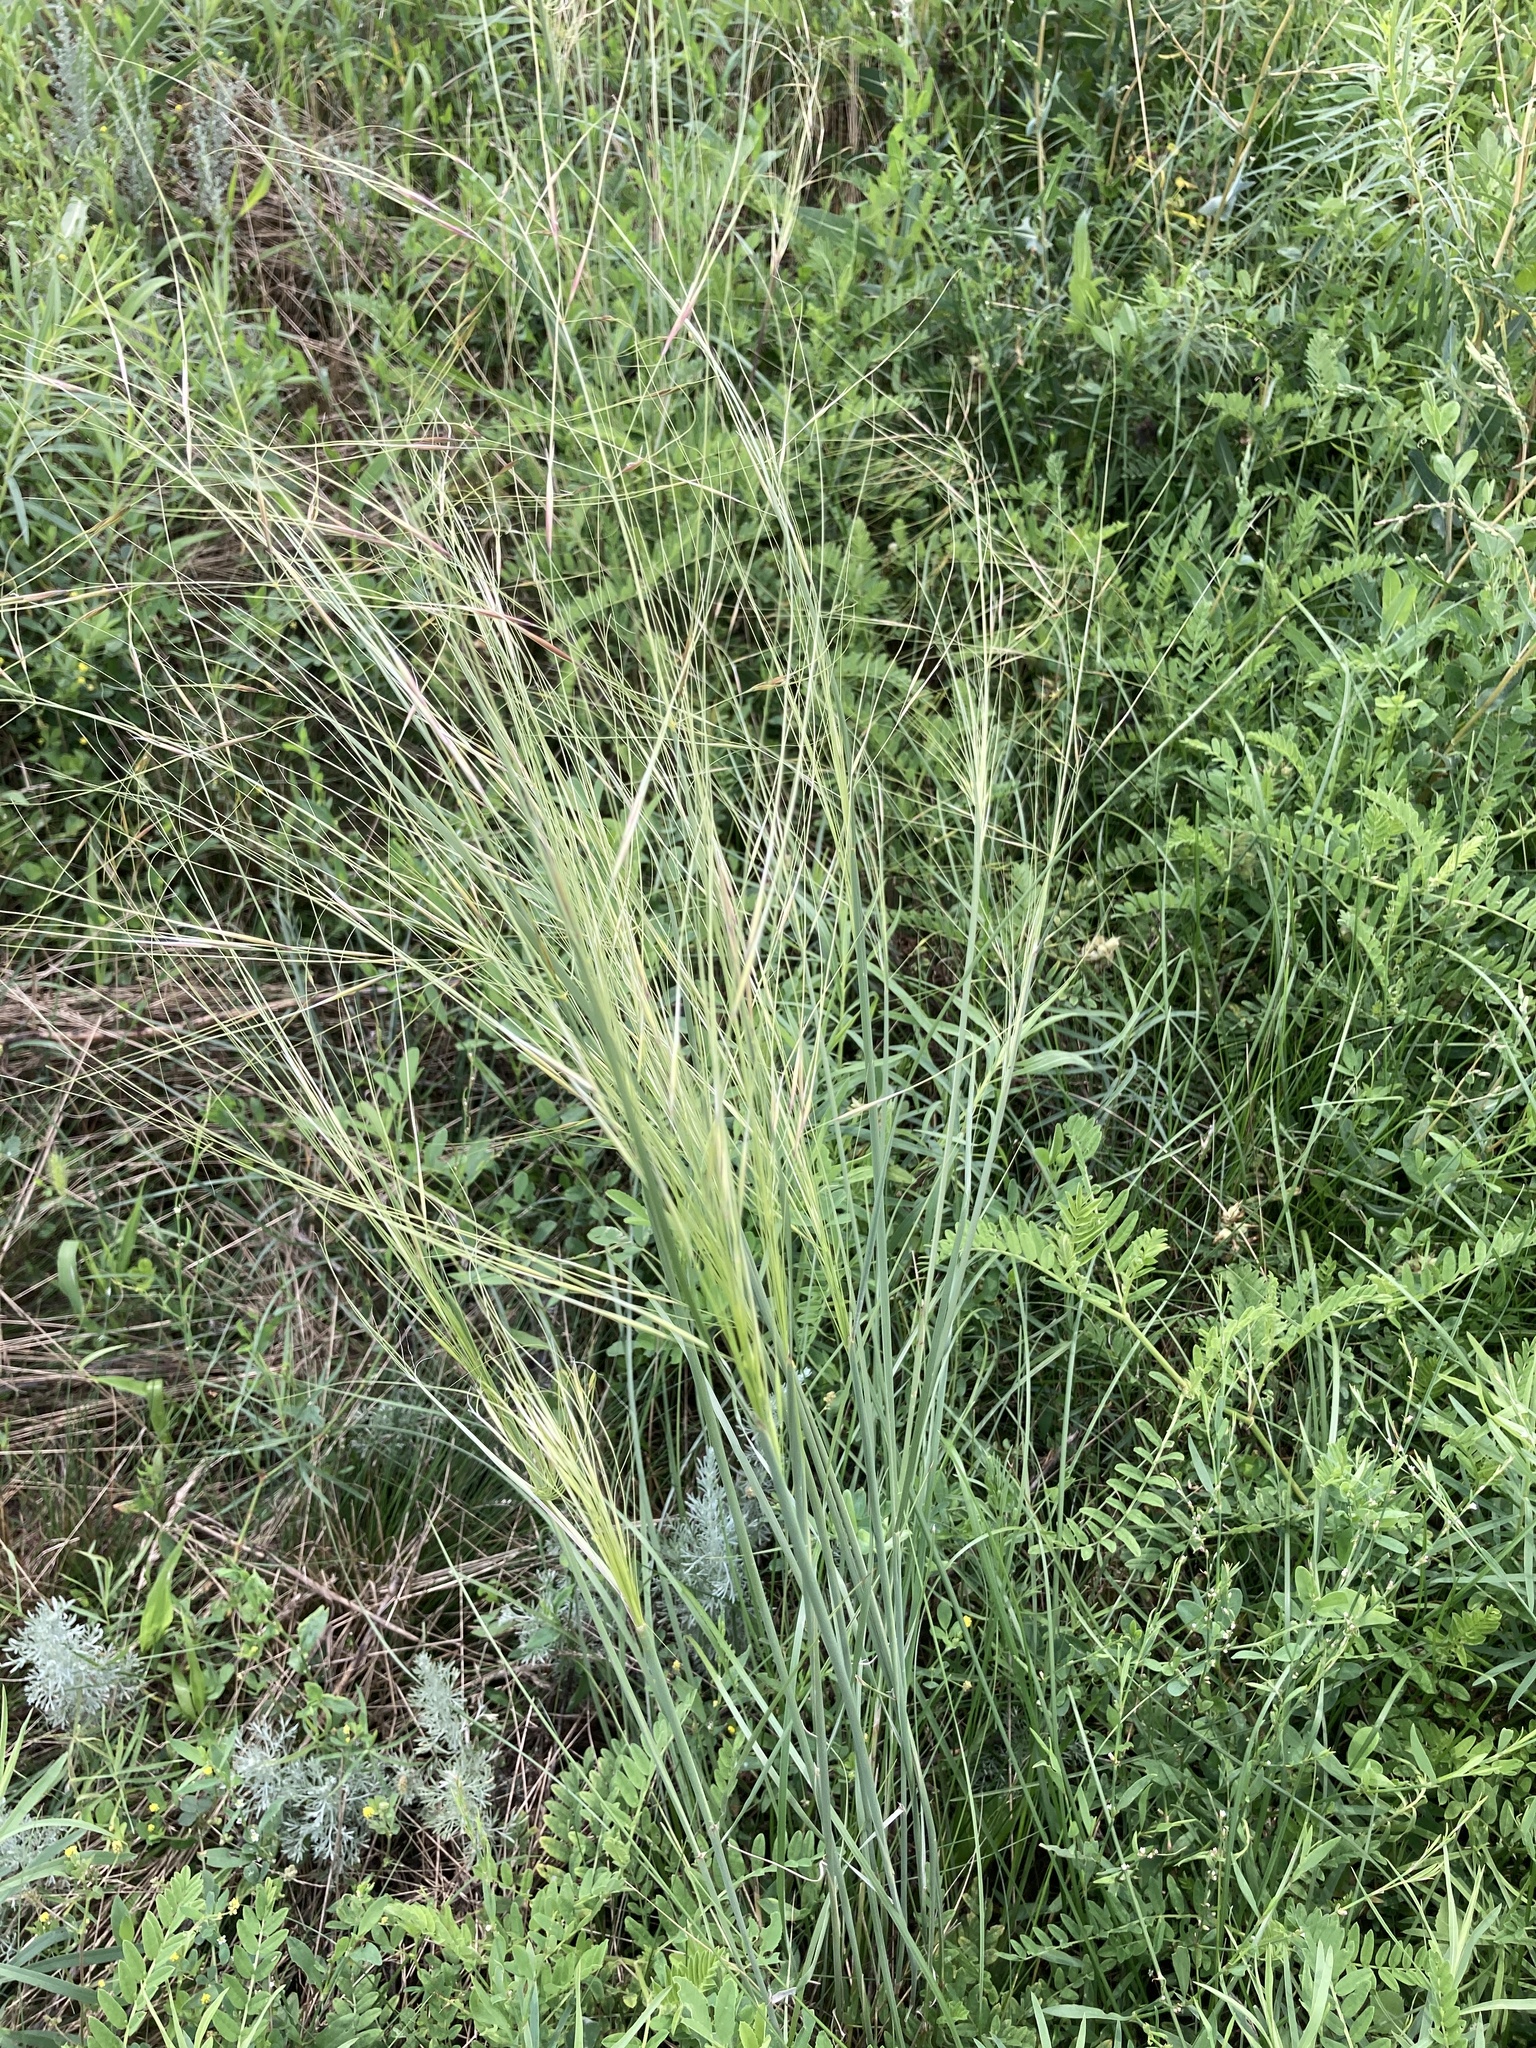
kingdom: Plantae
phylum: Tracheophyta
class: Liliopsida
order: Poales
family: Poaceae
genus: Stipa
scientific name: Stipa capillata
